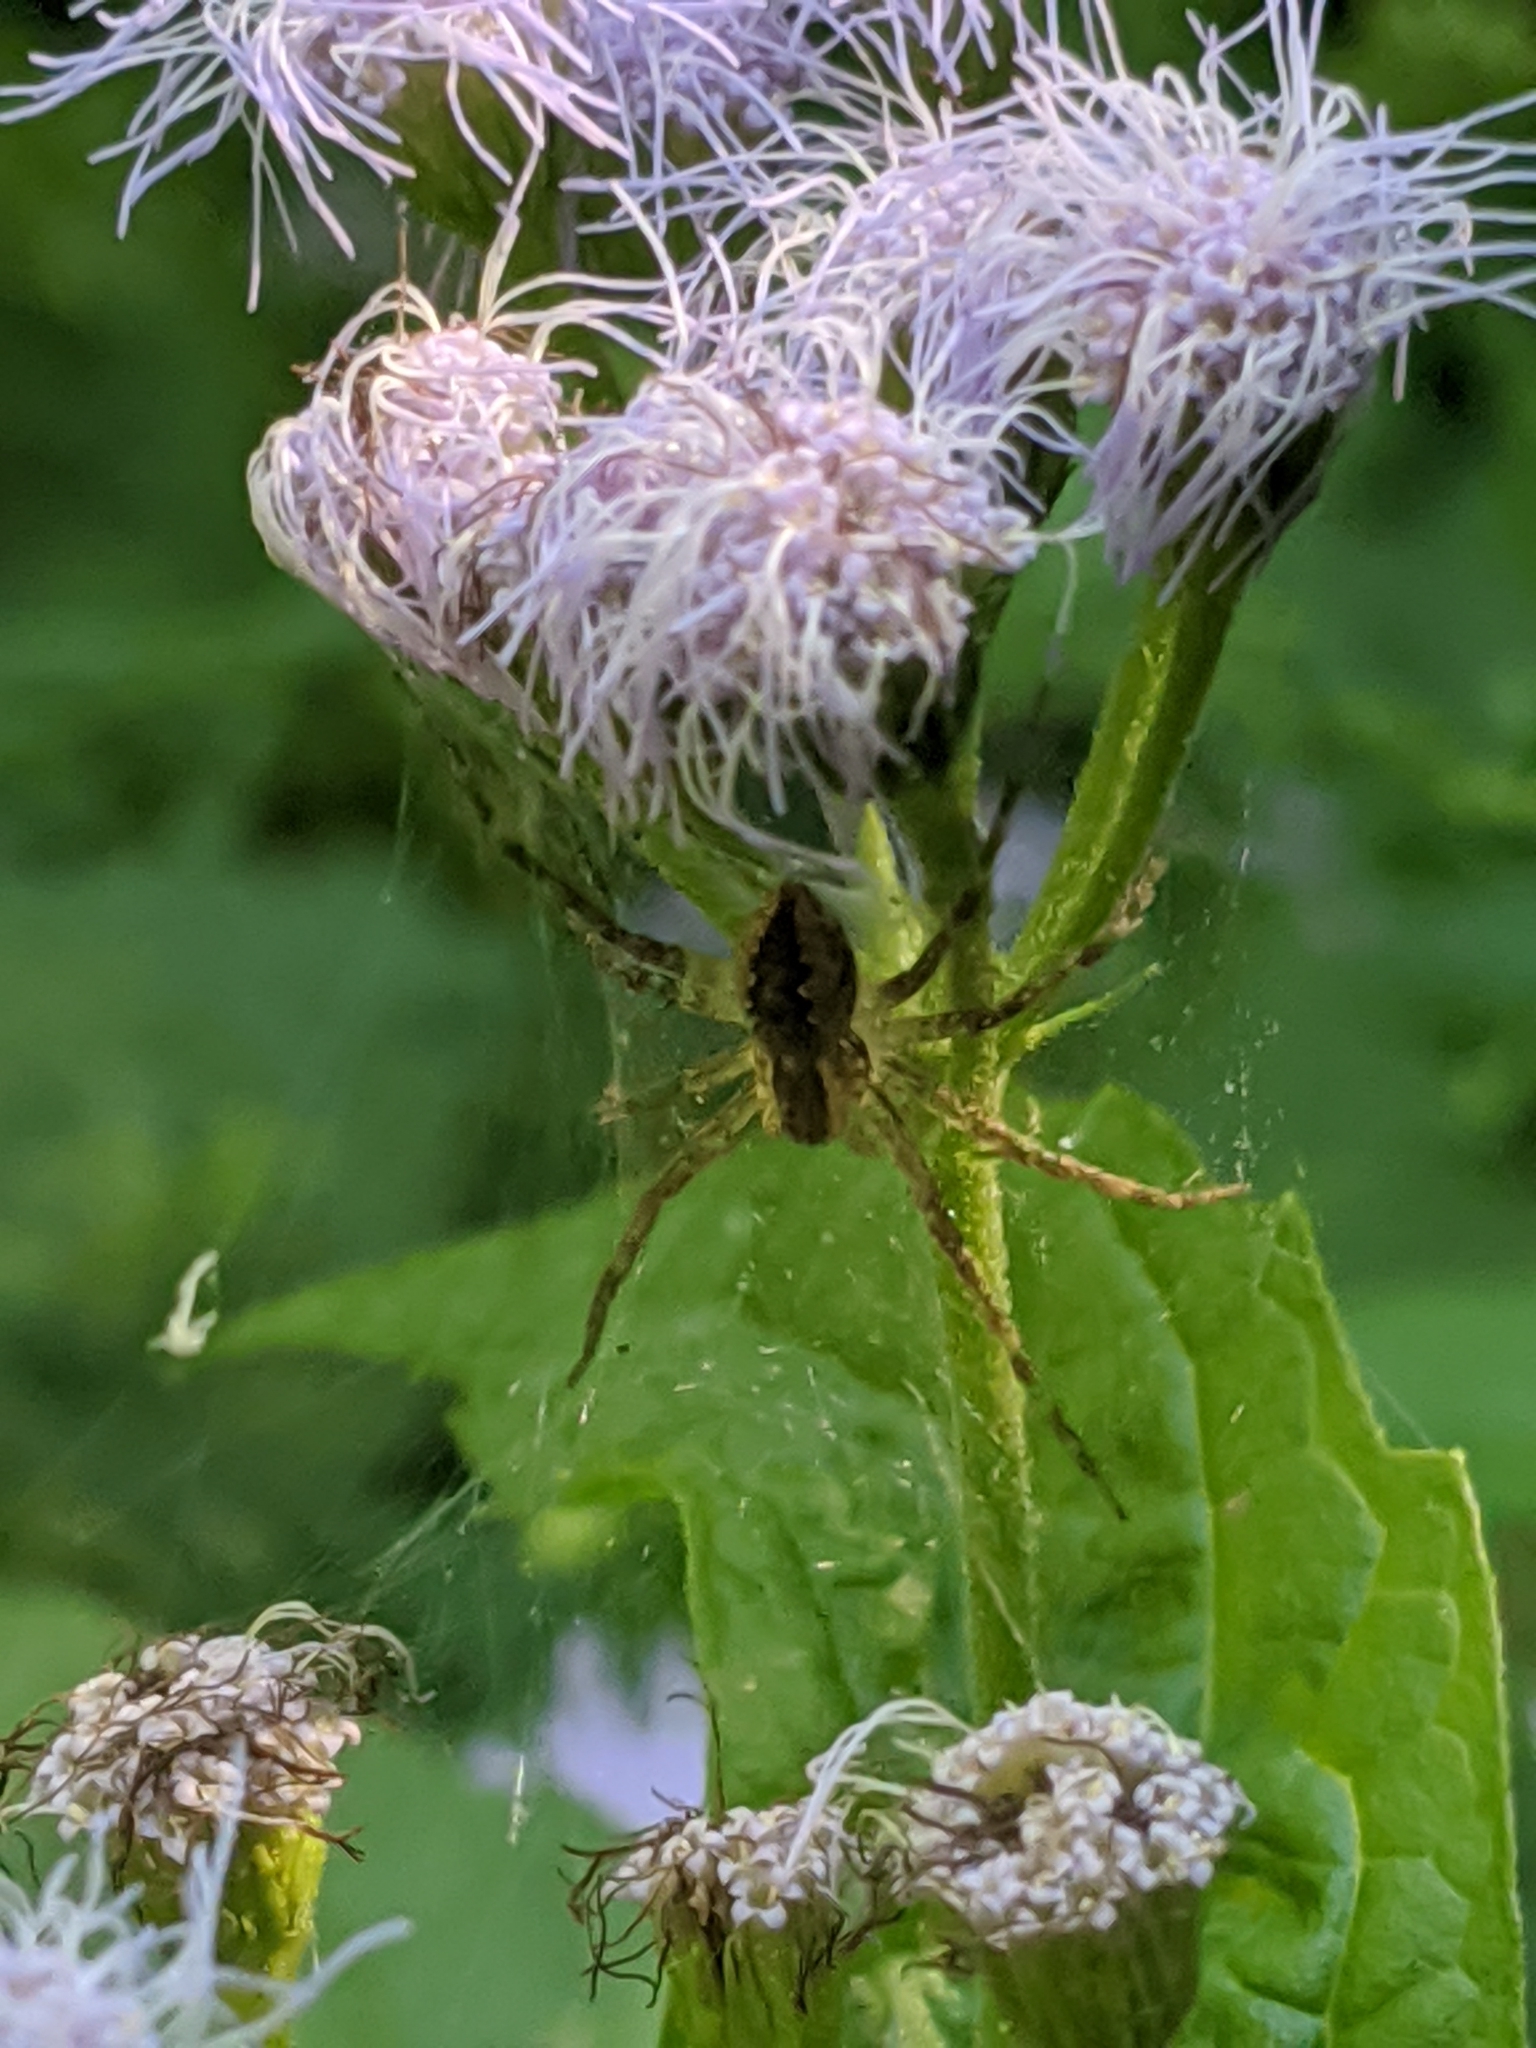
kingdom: Animalia
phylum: Arthropoda
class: Arachnida
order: Araneae
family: Pisauridae
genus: Pisaurina
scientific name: Pisaurina mira
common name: American nursery web spider
